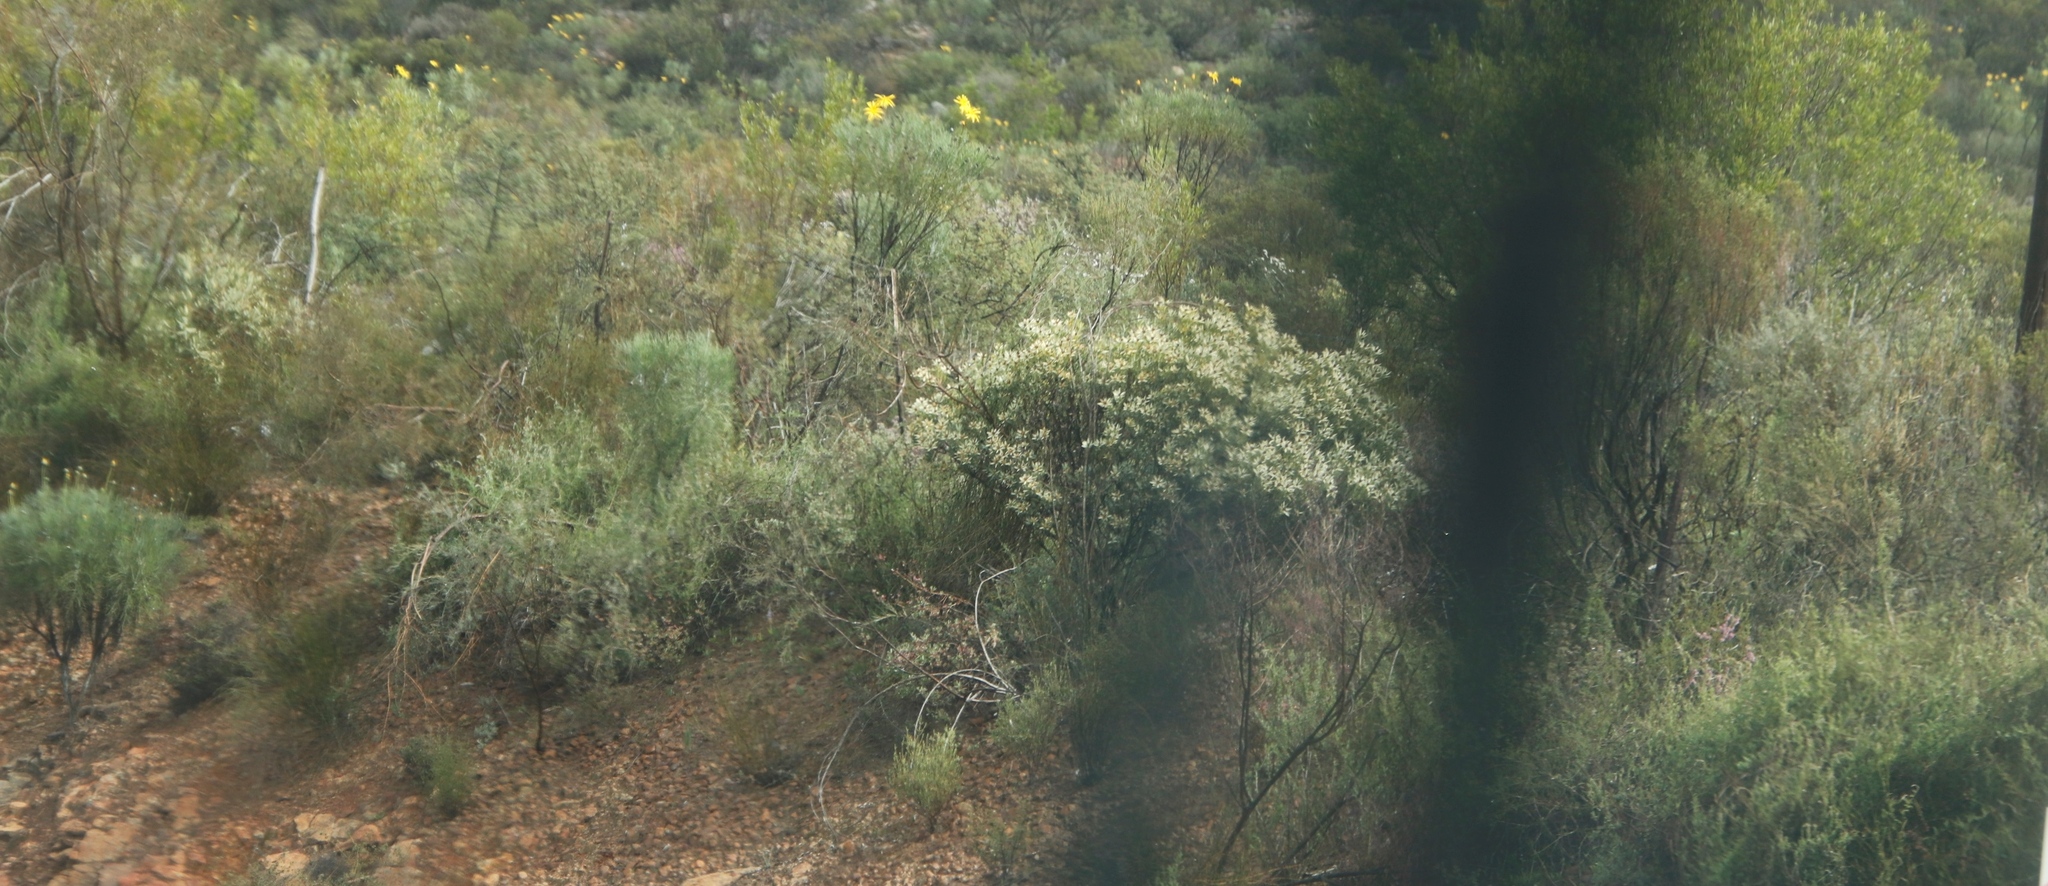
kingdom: Plantae
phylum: Tracheophyta
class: Magnoliopsida
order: Proteales
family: Proteaceae
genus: Leucadendron
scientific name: Leucadendron loranthifolium
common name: Green-flower sunbush
